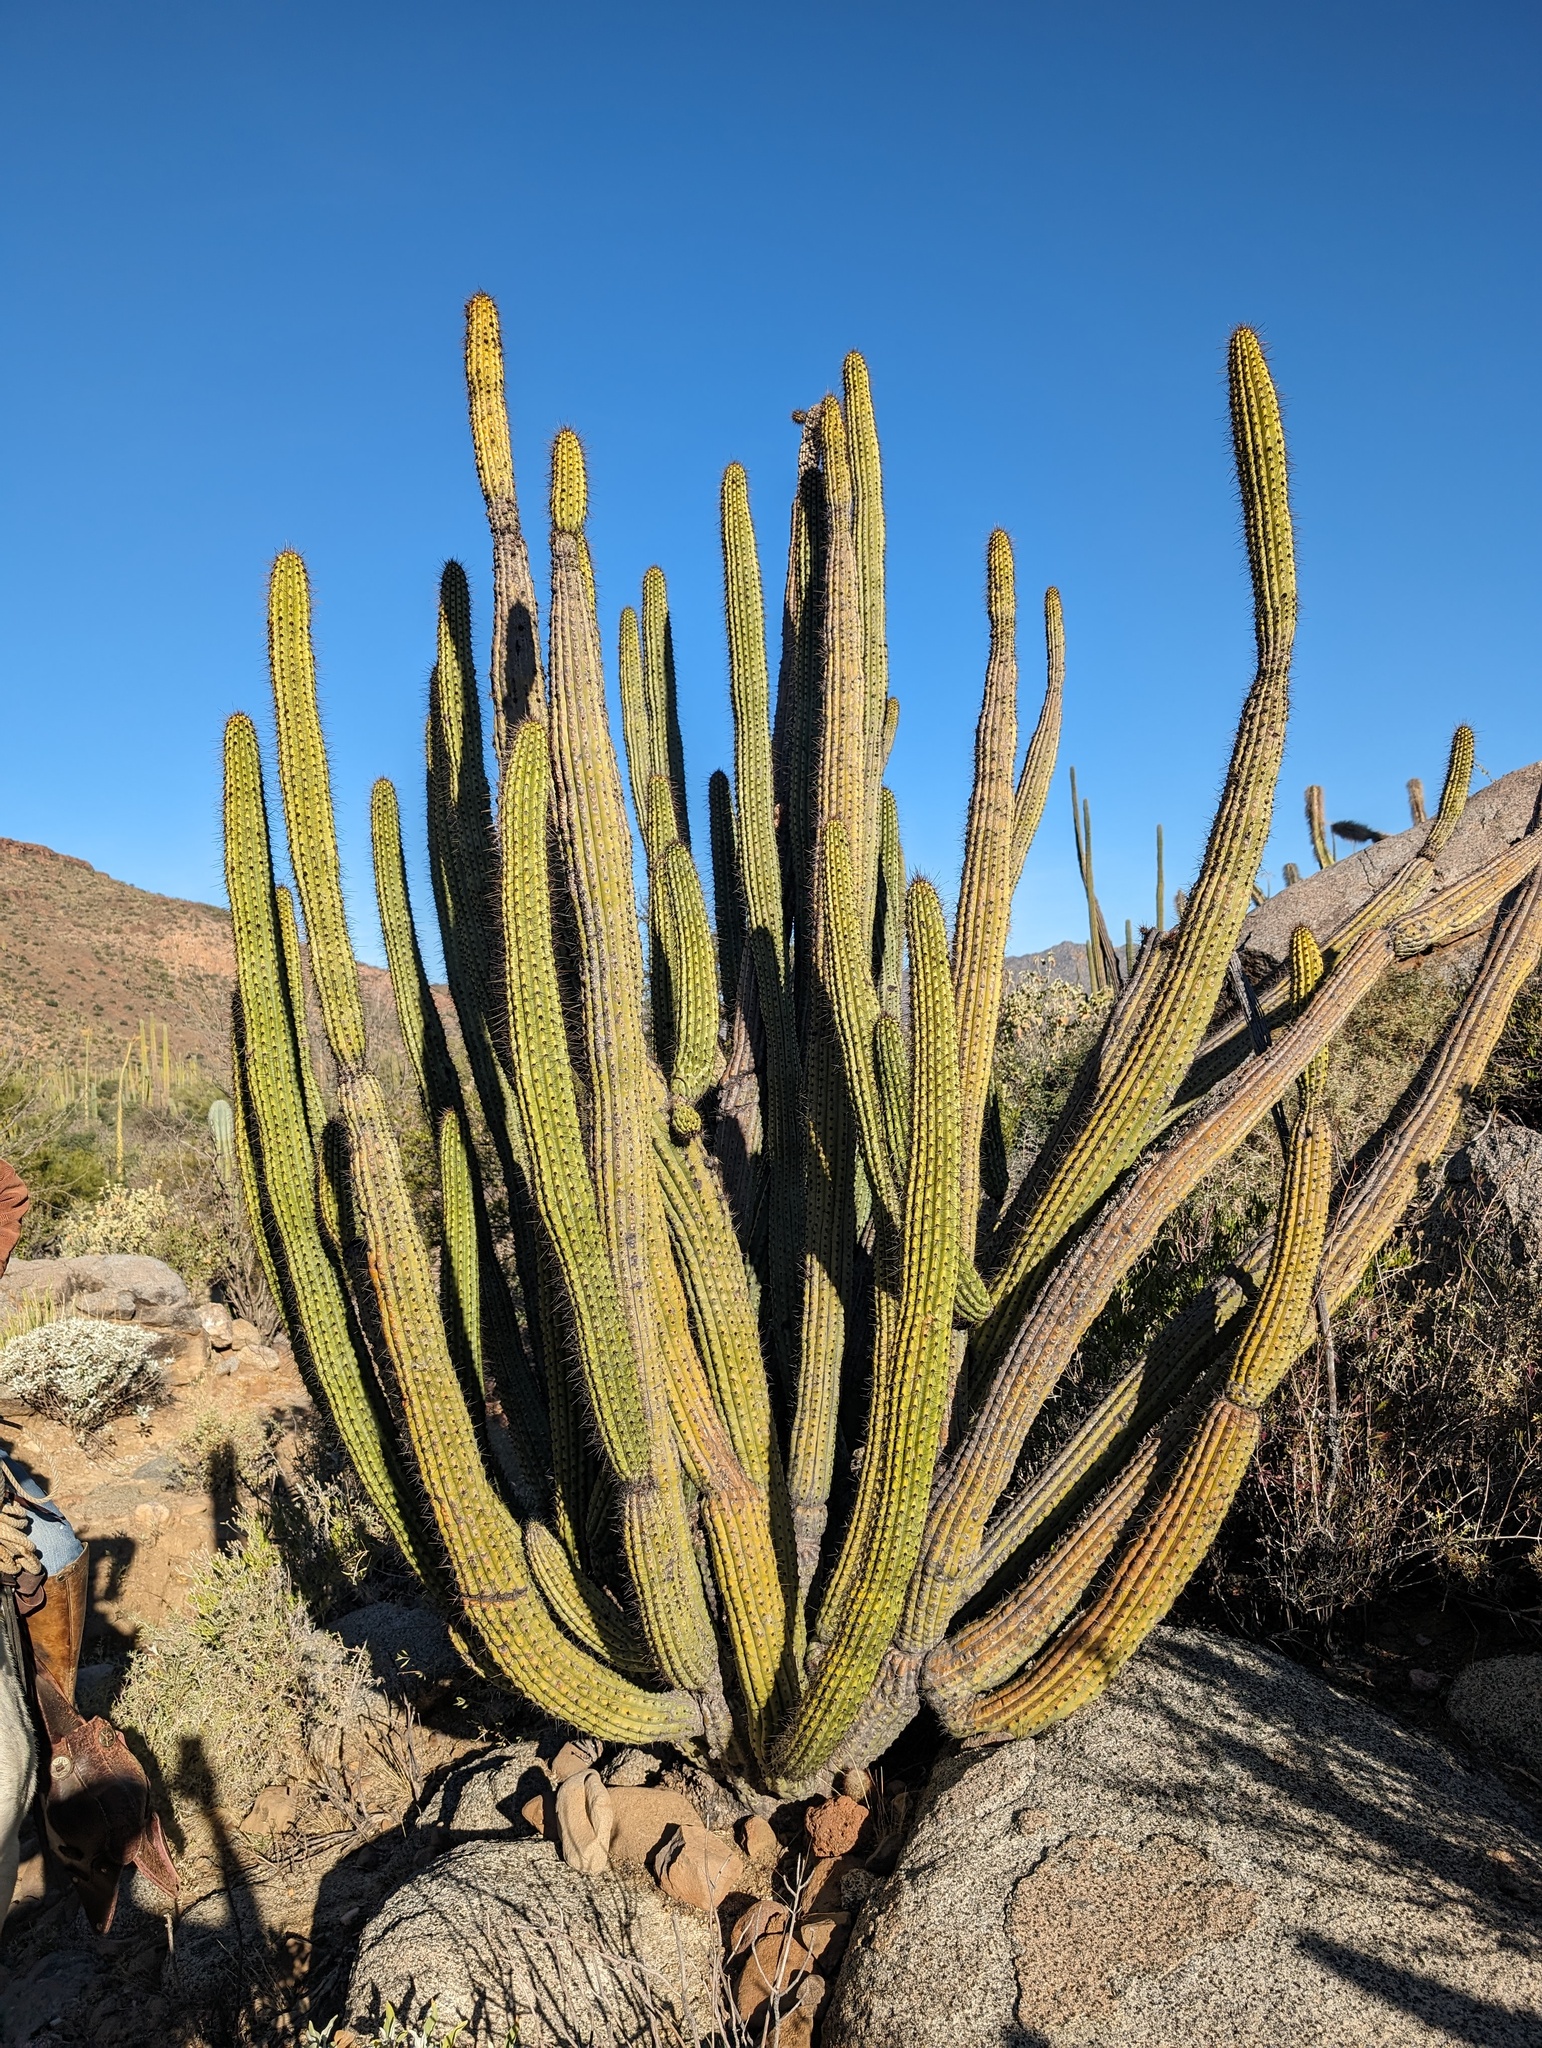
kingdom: Plantae
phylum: Tracheophyta
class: Magnoliopsida
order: Caryophyllales
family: Cactaceae
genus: Stenocereus
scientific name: Stenocereus thurberi
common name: Organ pipe cactus
